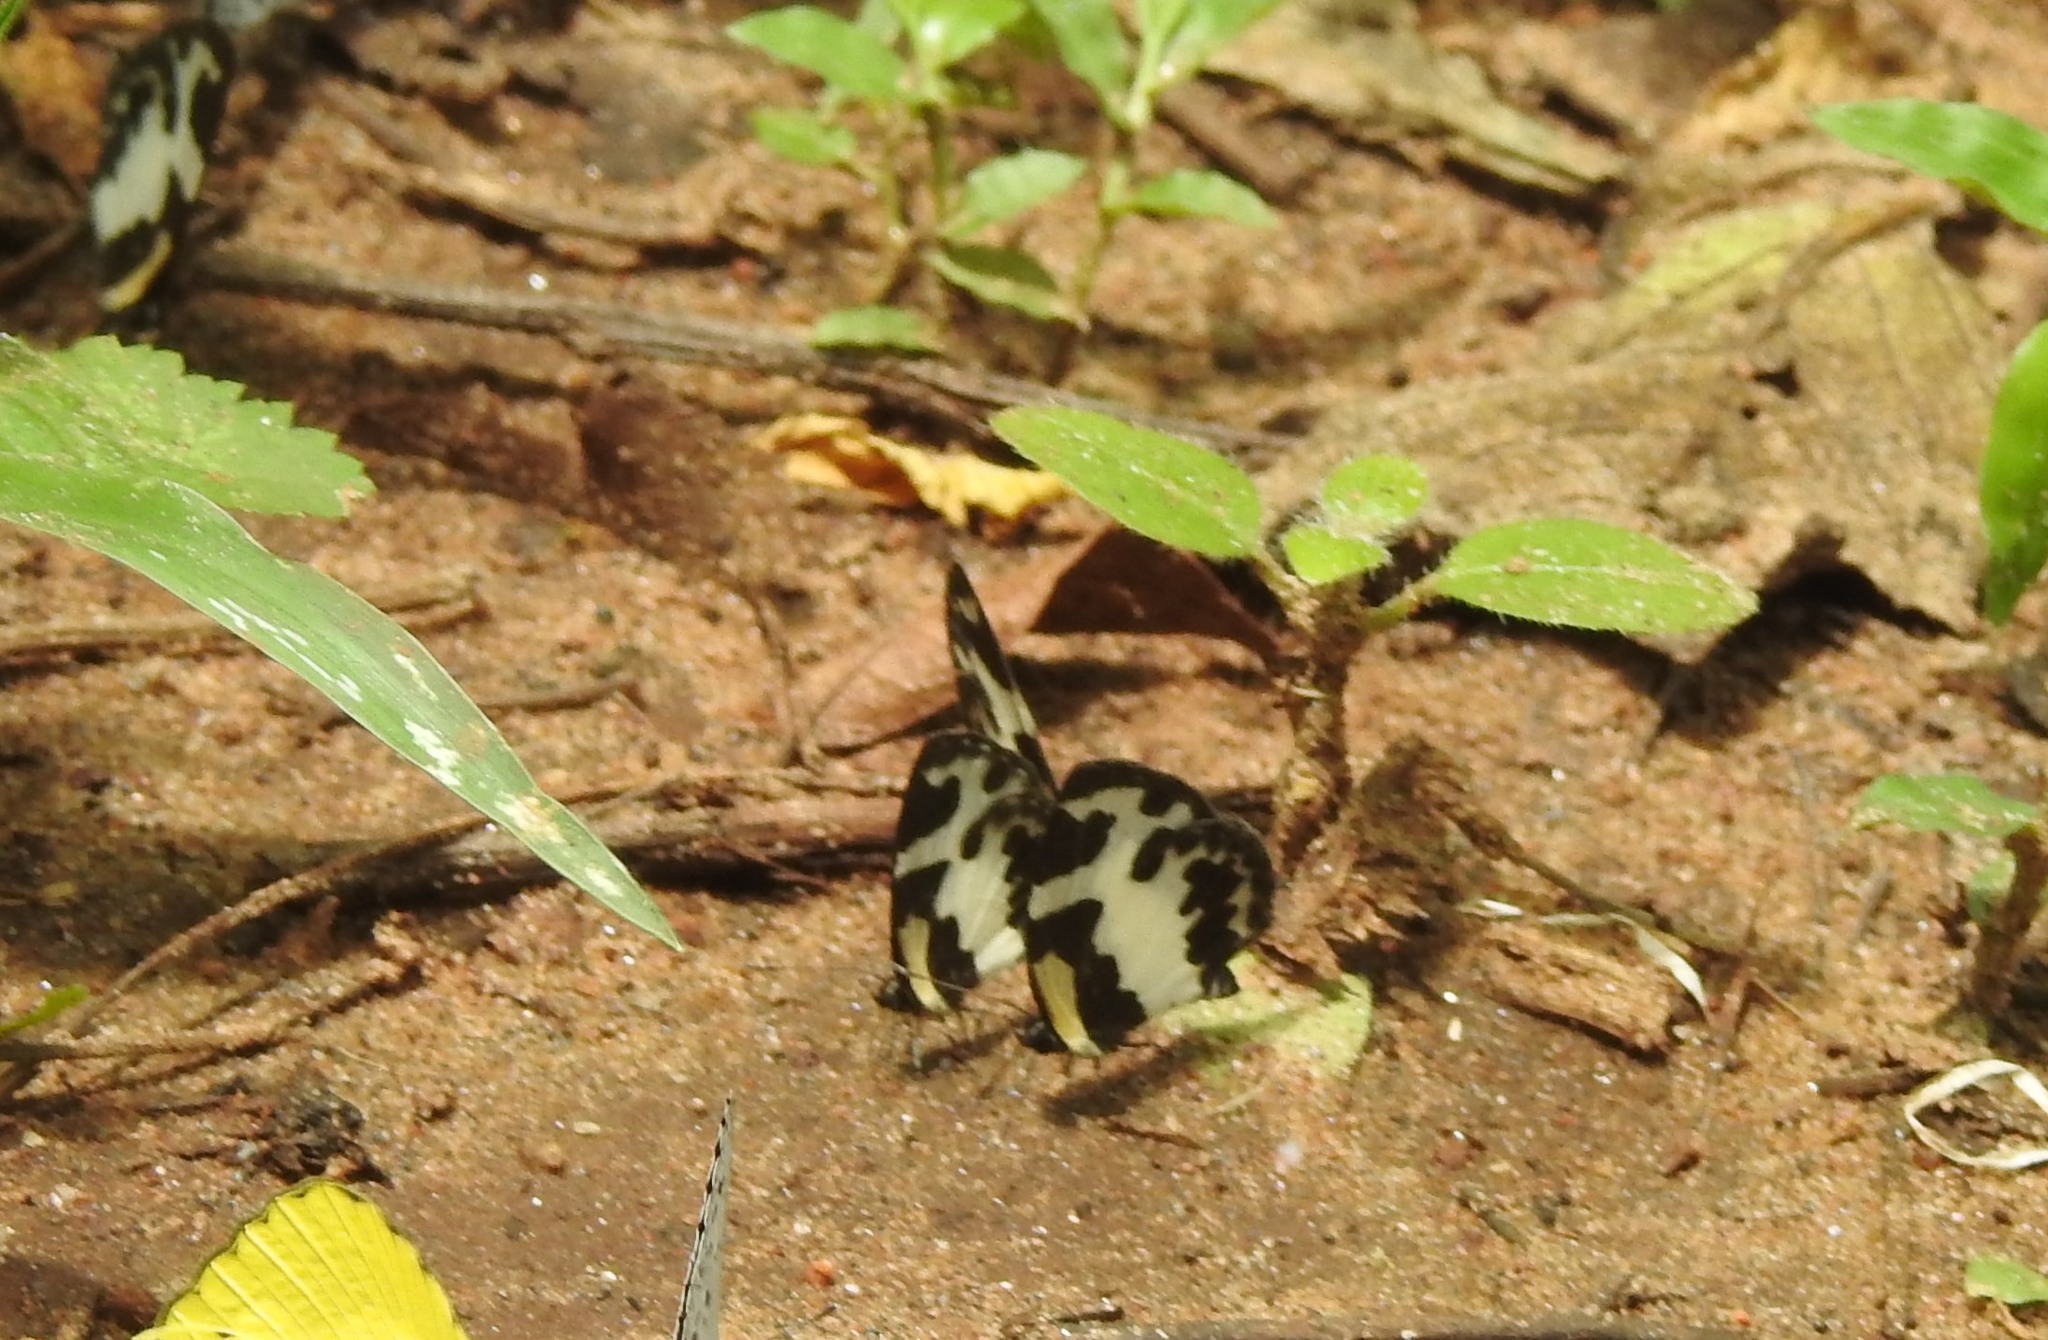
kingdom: Animalia
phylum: Arthropoda
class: Insecta
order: Lepidoptera
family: Lycaenidae
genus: Caleta
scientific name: Caleta elna
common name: Elbowed pierrot
